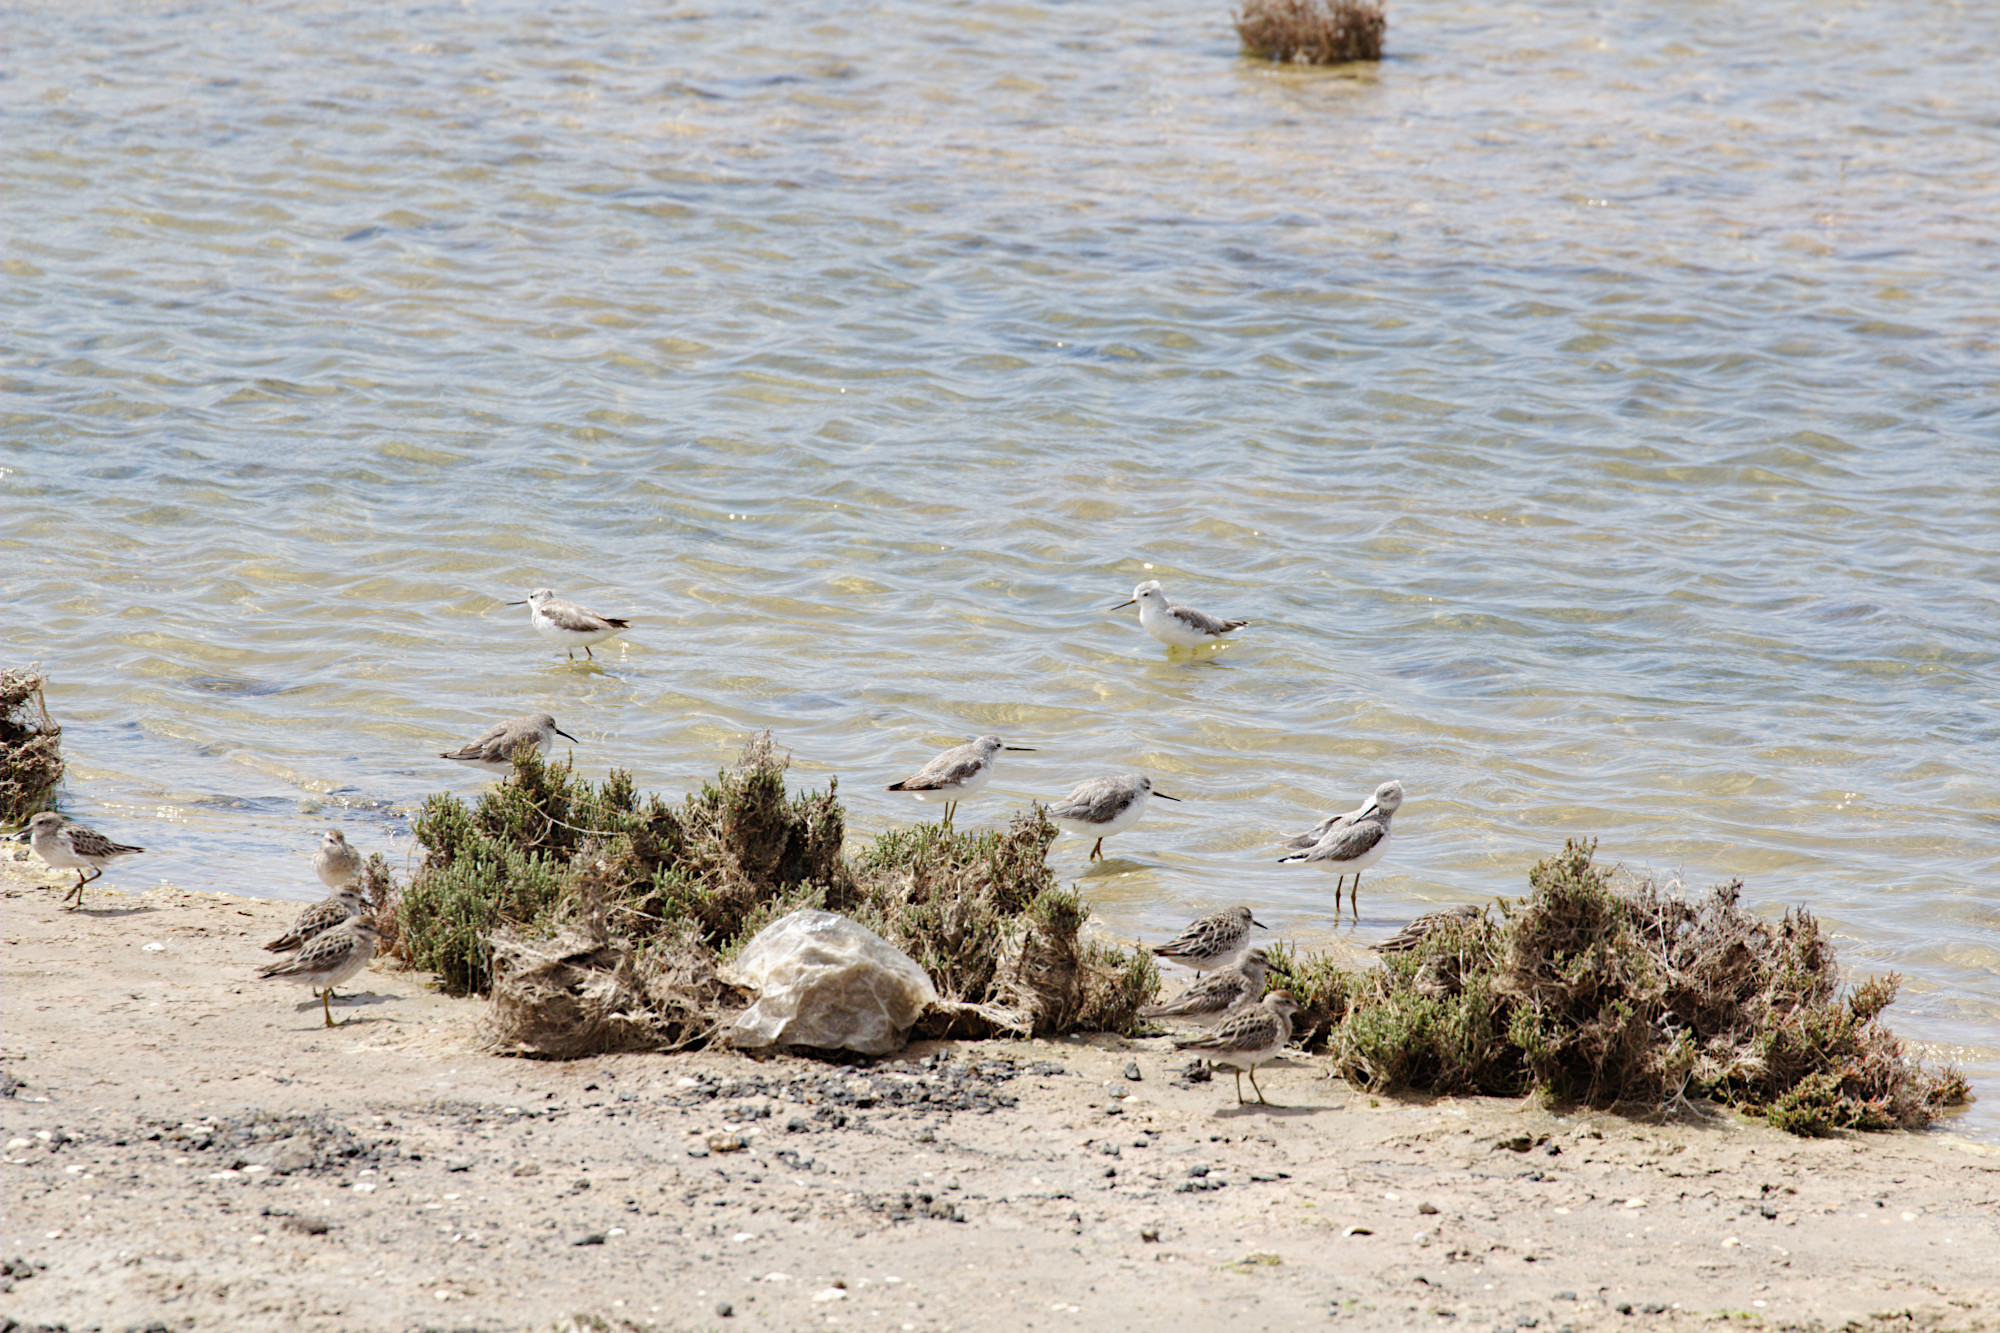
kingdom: Animalia
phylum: Chordata
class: Aves
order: Charadriiformes
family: Scolopacidae
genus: Calidris
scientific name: Calidris acuminata
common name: Sharp-tailed sandpiper
